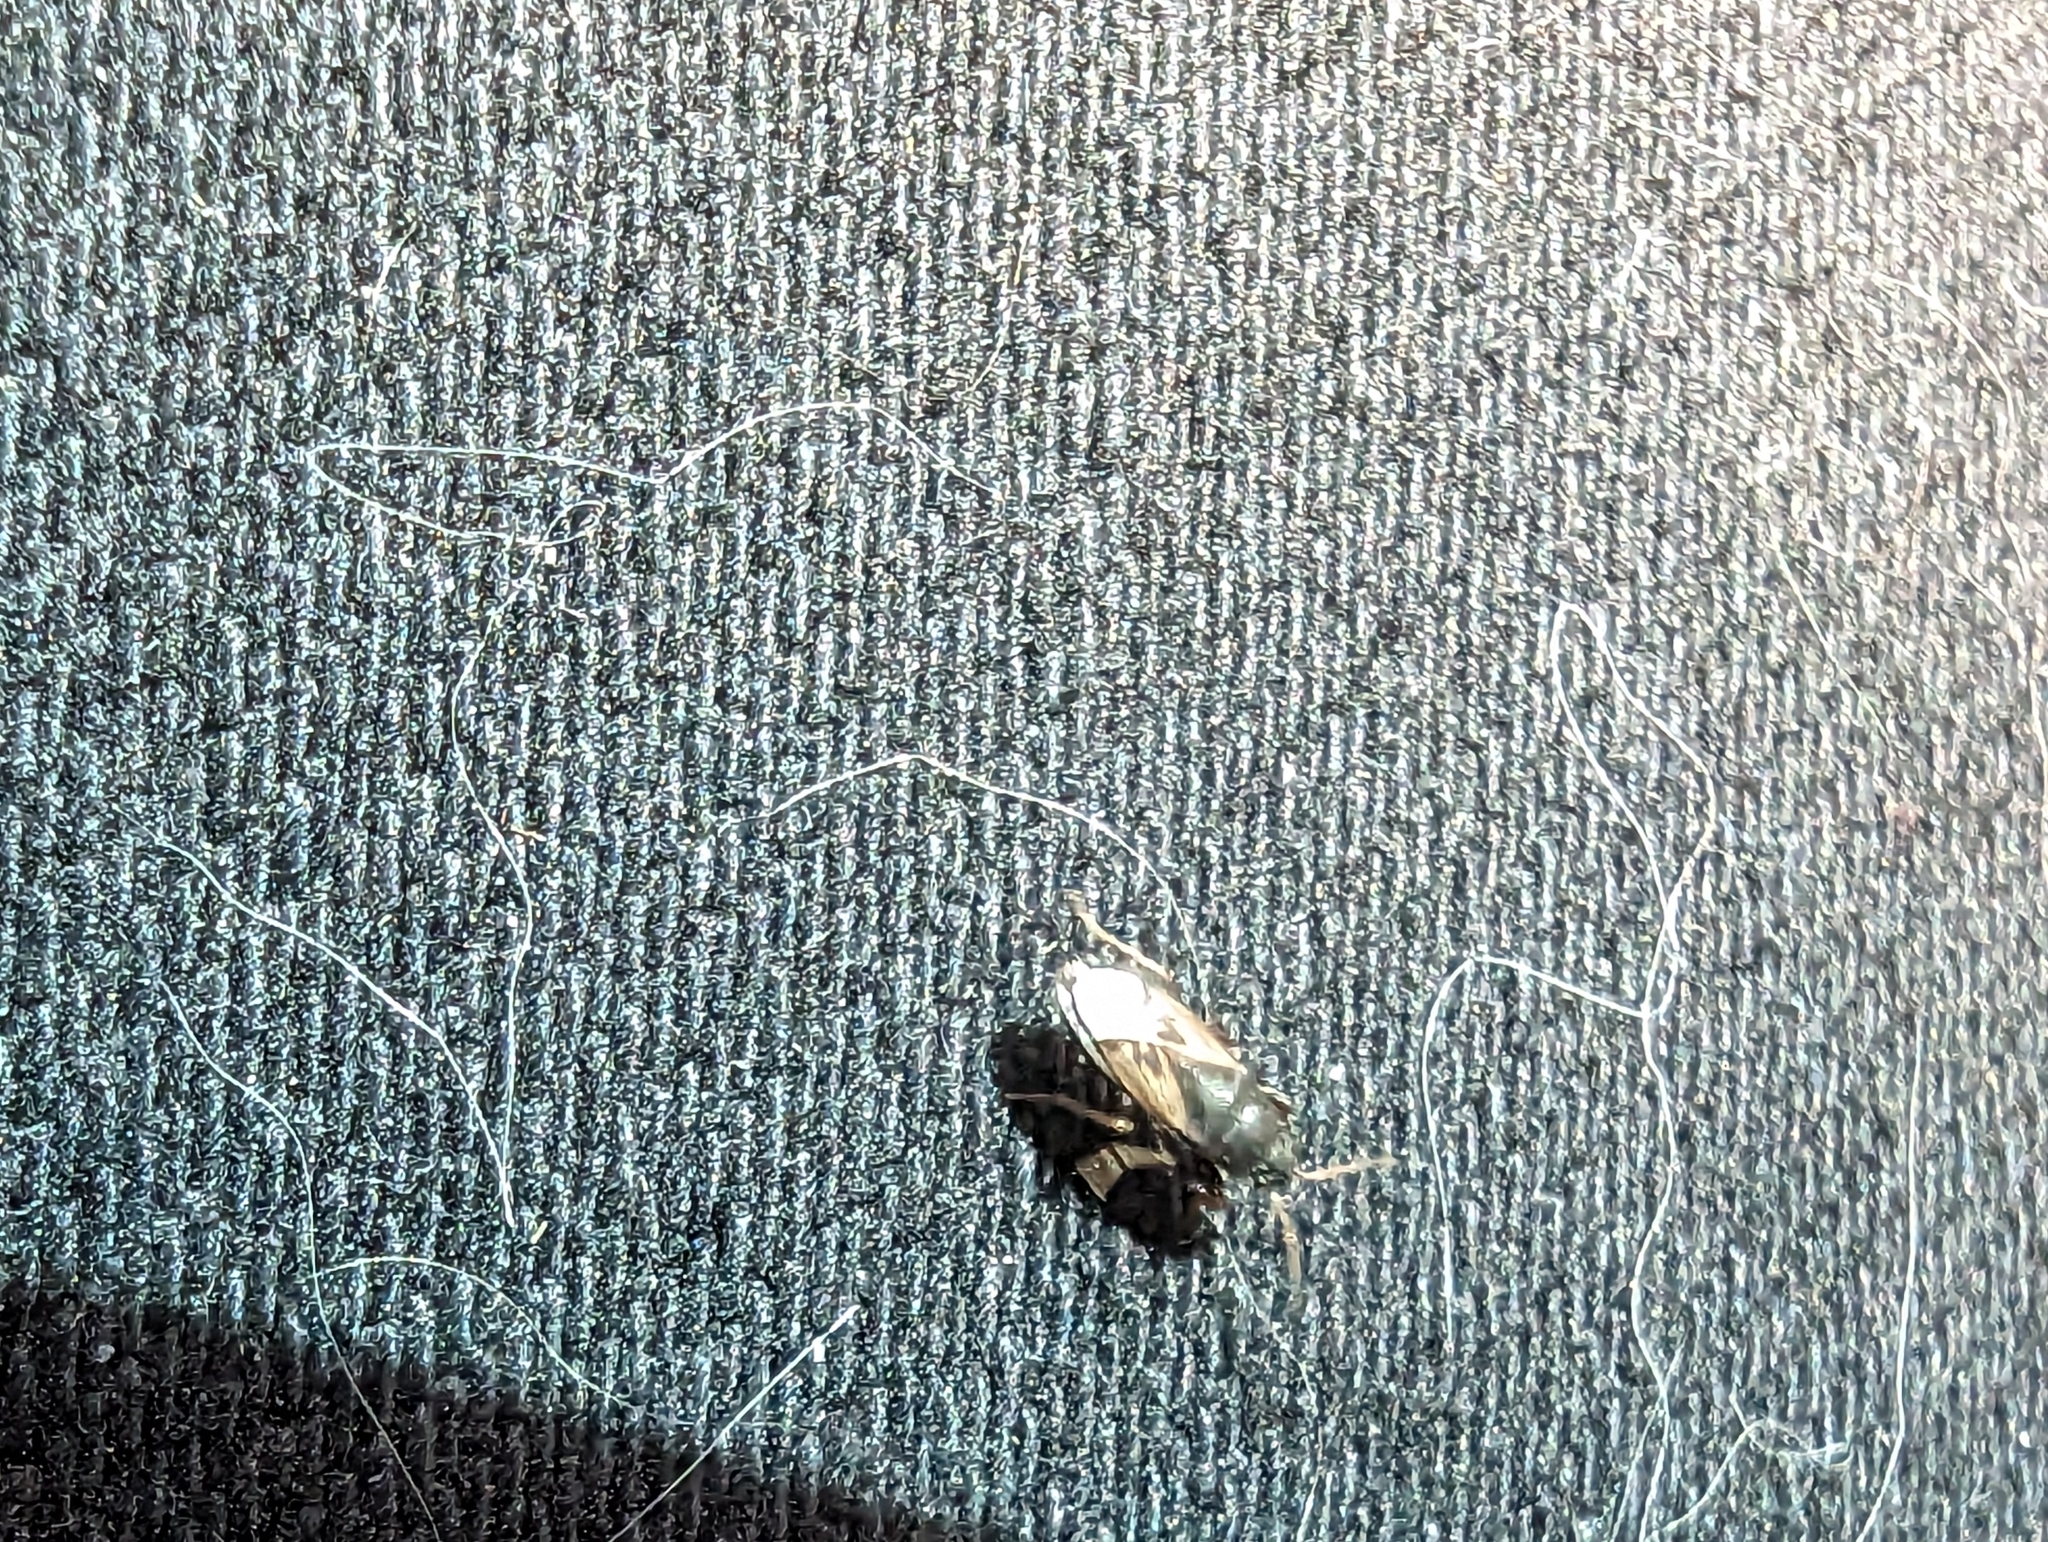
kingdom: Animalia
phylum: Arthropoda
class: Insecta
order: Hemiptera
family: Rhyparochromidae
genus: Megalonotus
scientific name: Megalonotus sabulicola
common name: Seed bug
